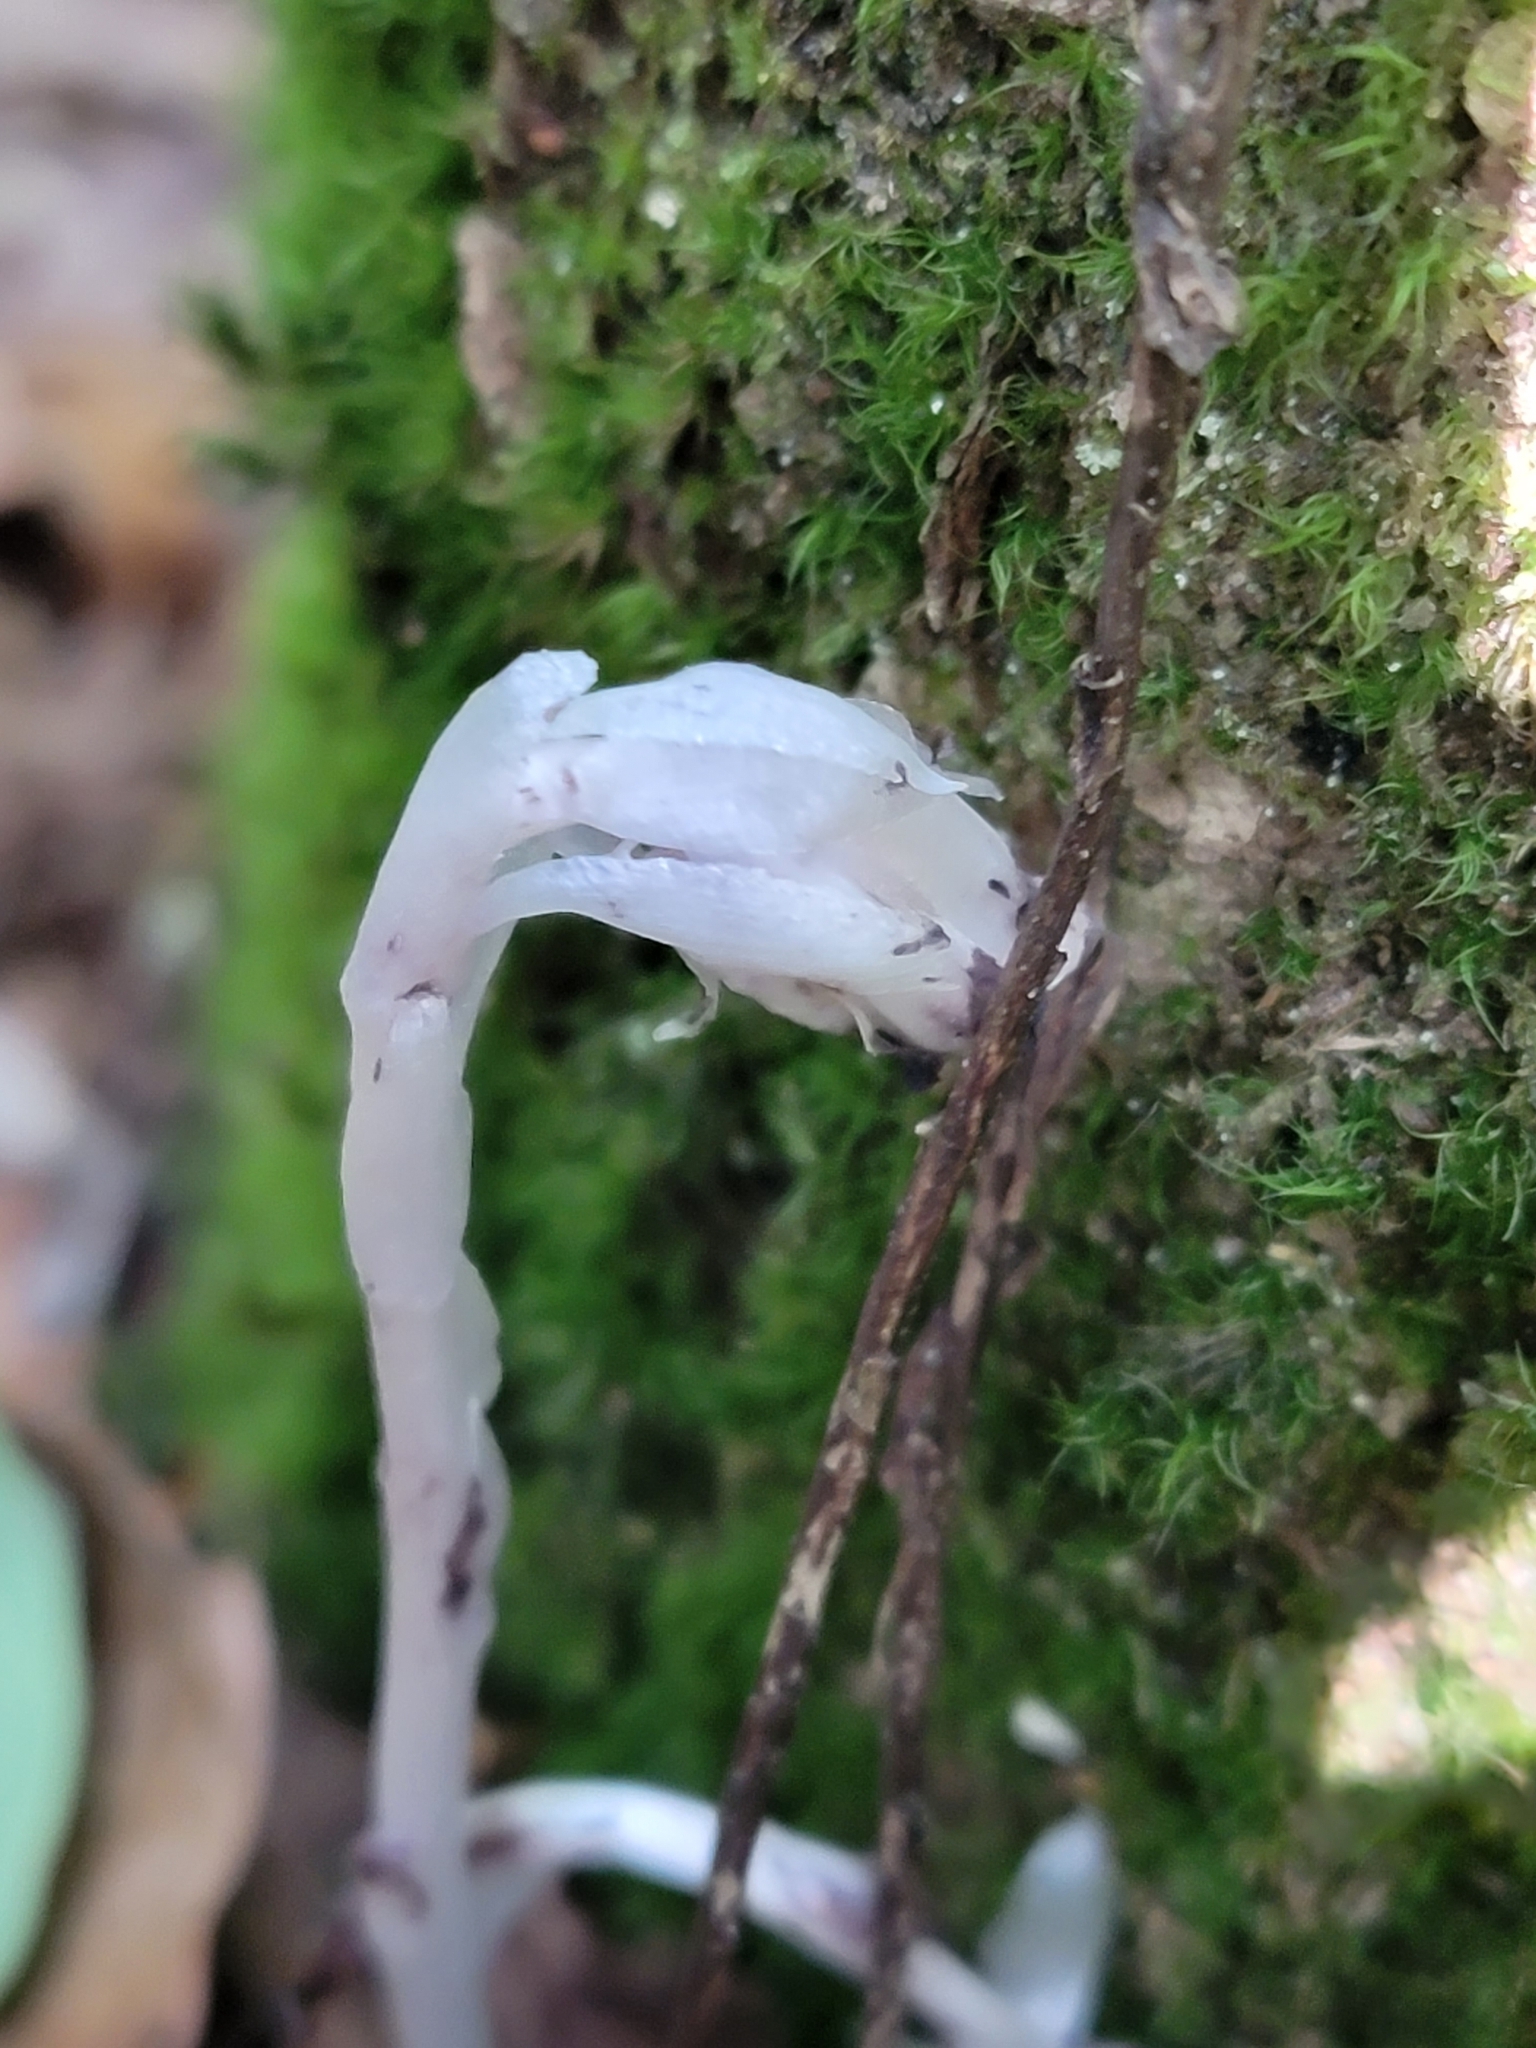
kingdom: Plantae
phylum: Tracheophyta
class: Magnoliopsida
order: Ericales
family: Ericaceae
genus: Monotropa
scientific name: Monotropa uniflora
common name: Convulsion root
